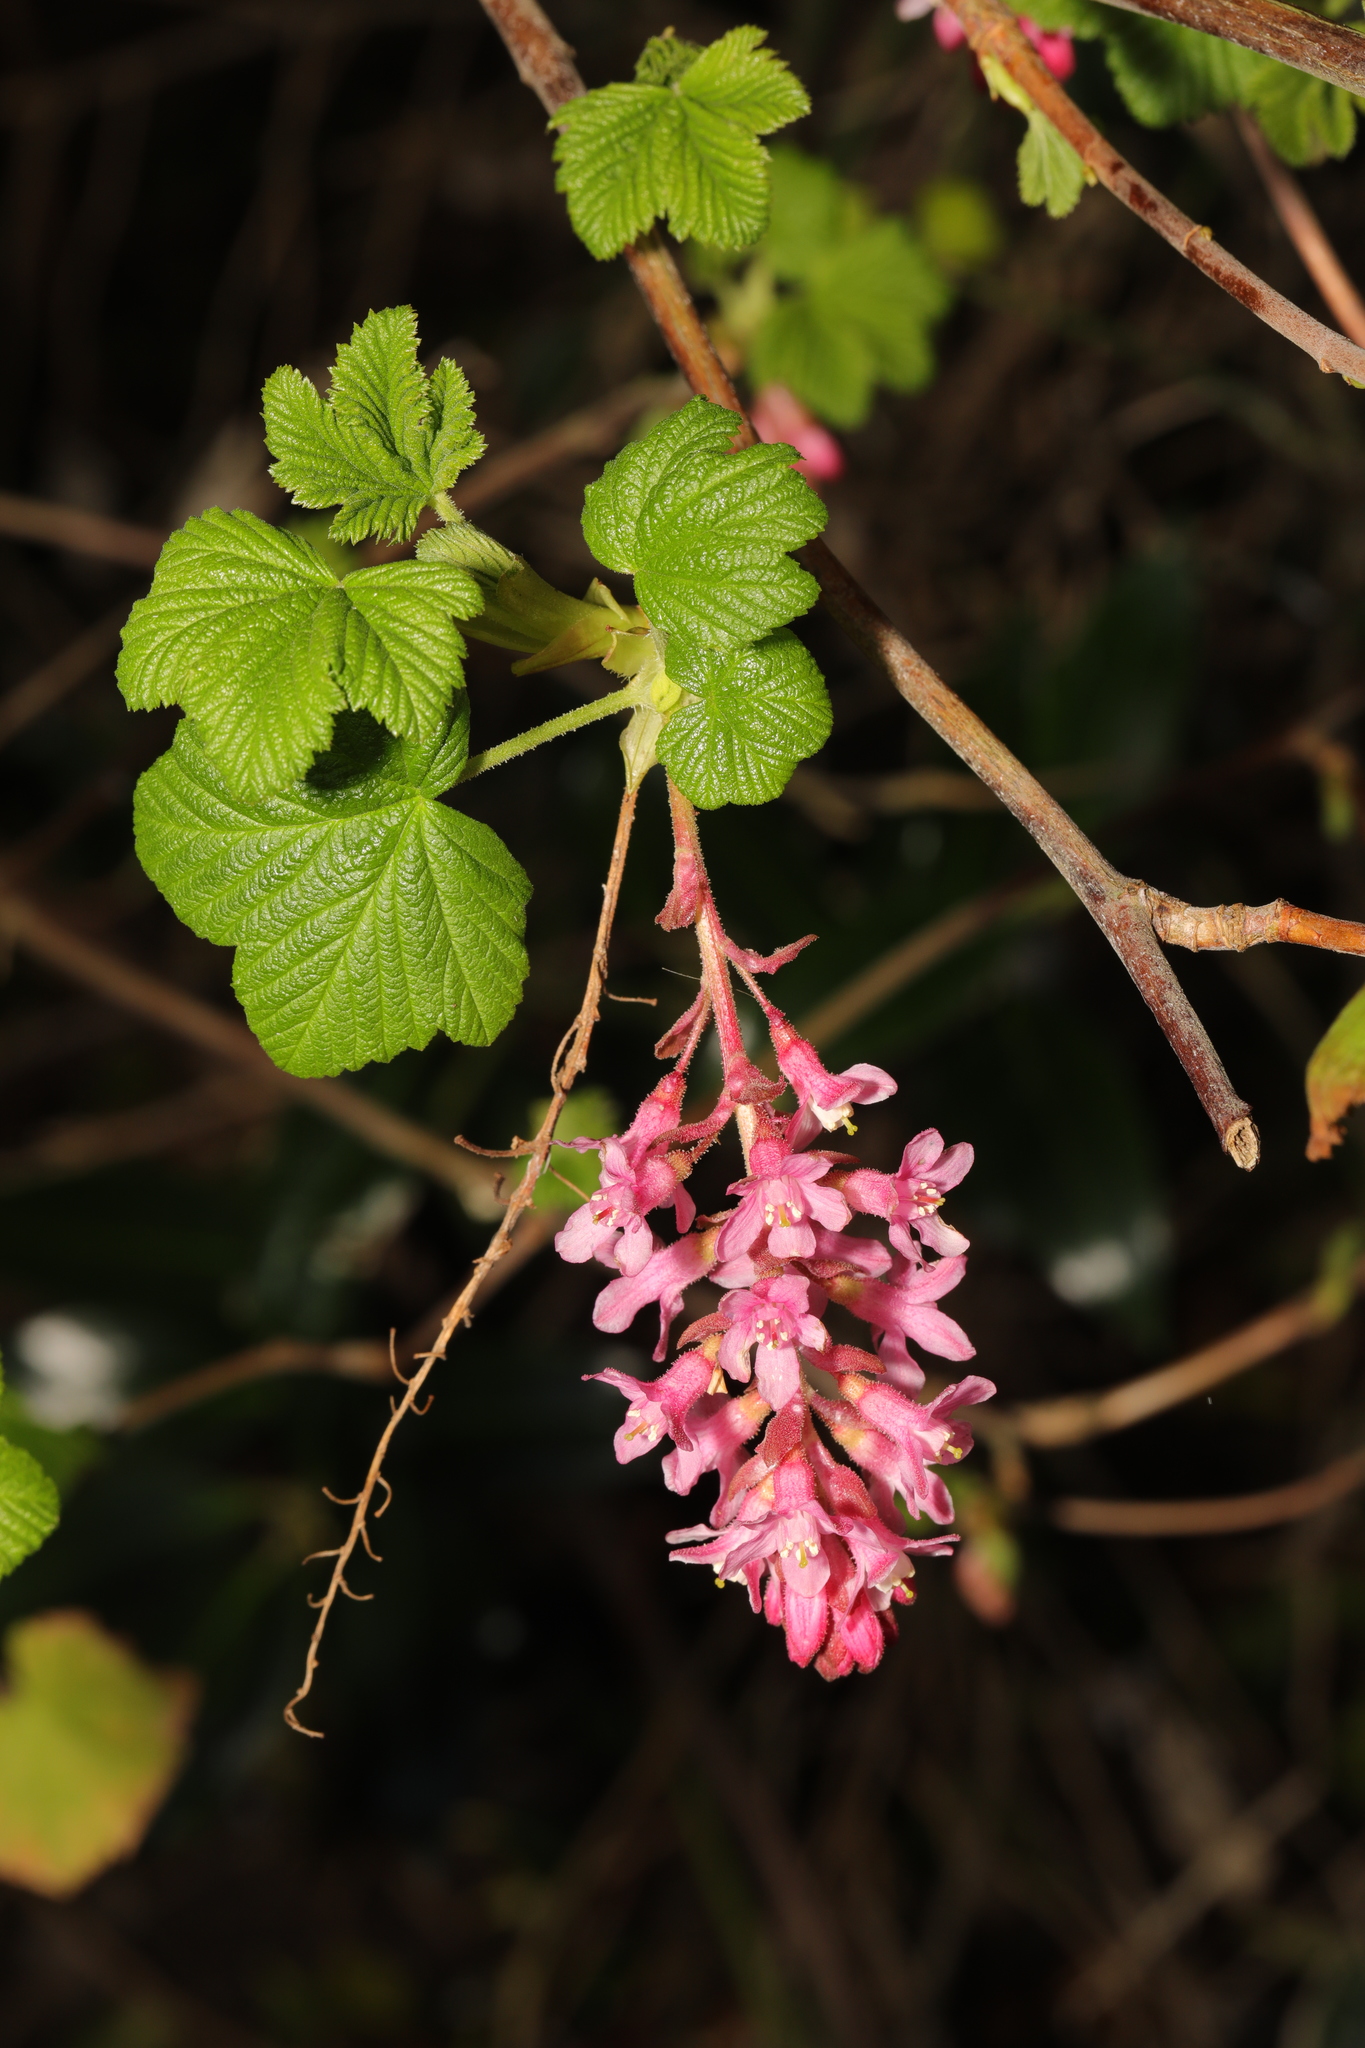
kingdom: Plantae
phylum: Tracheophyta
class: Magnoliopsida
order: Saxifragales
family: Grossulariaceae
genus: Ribes
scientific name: Ribes sanguineum
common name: Flowering currant
